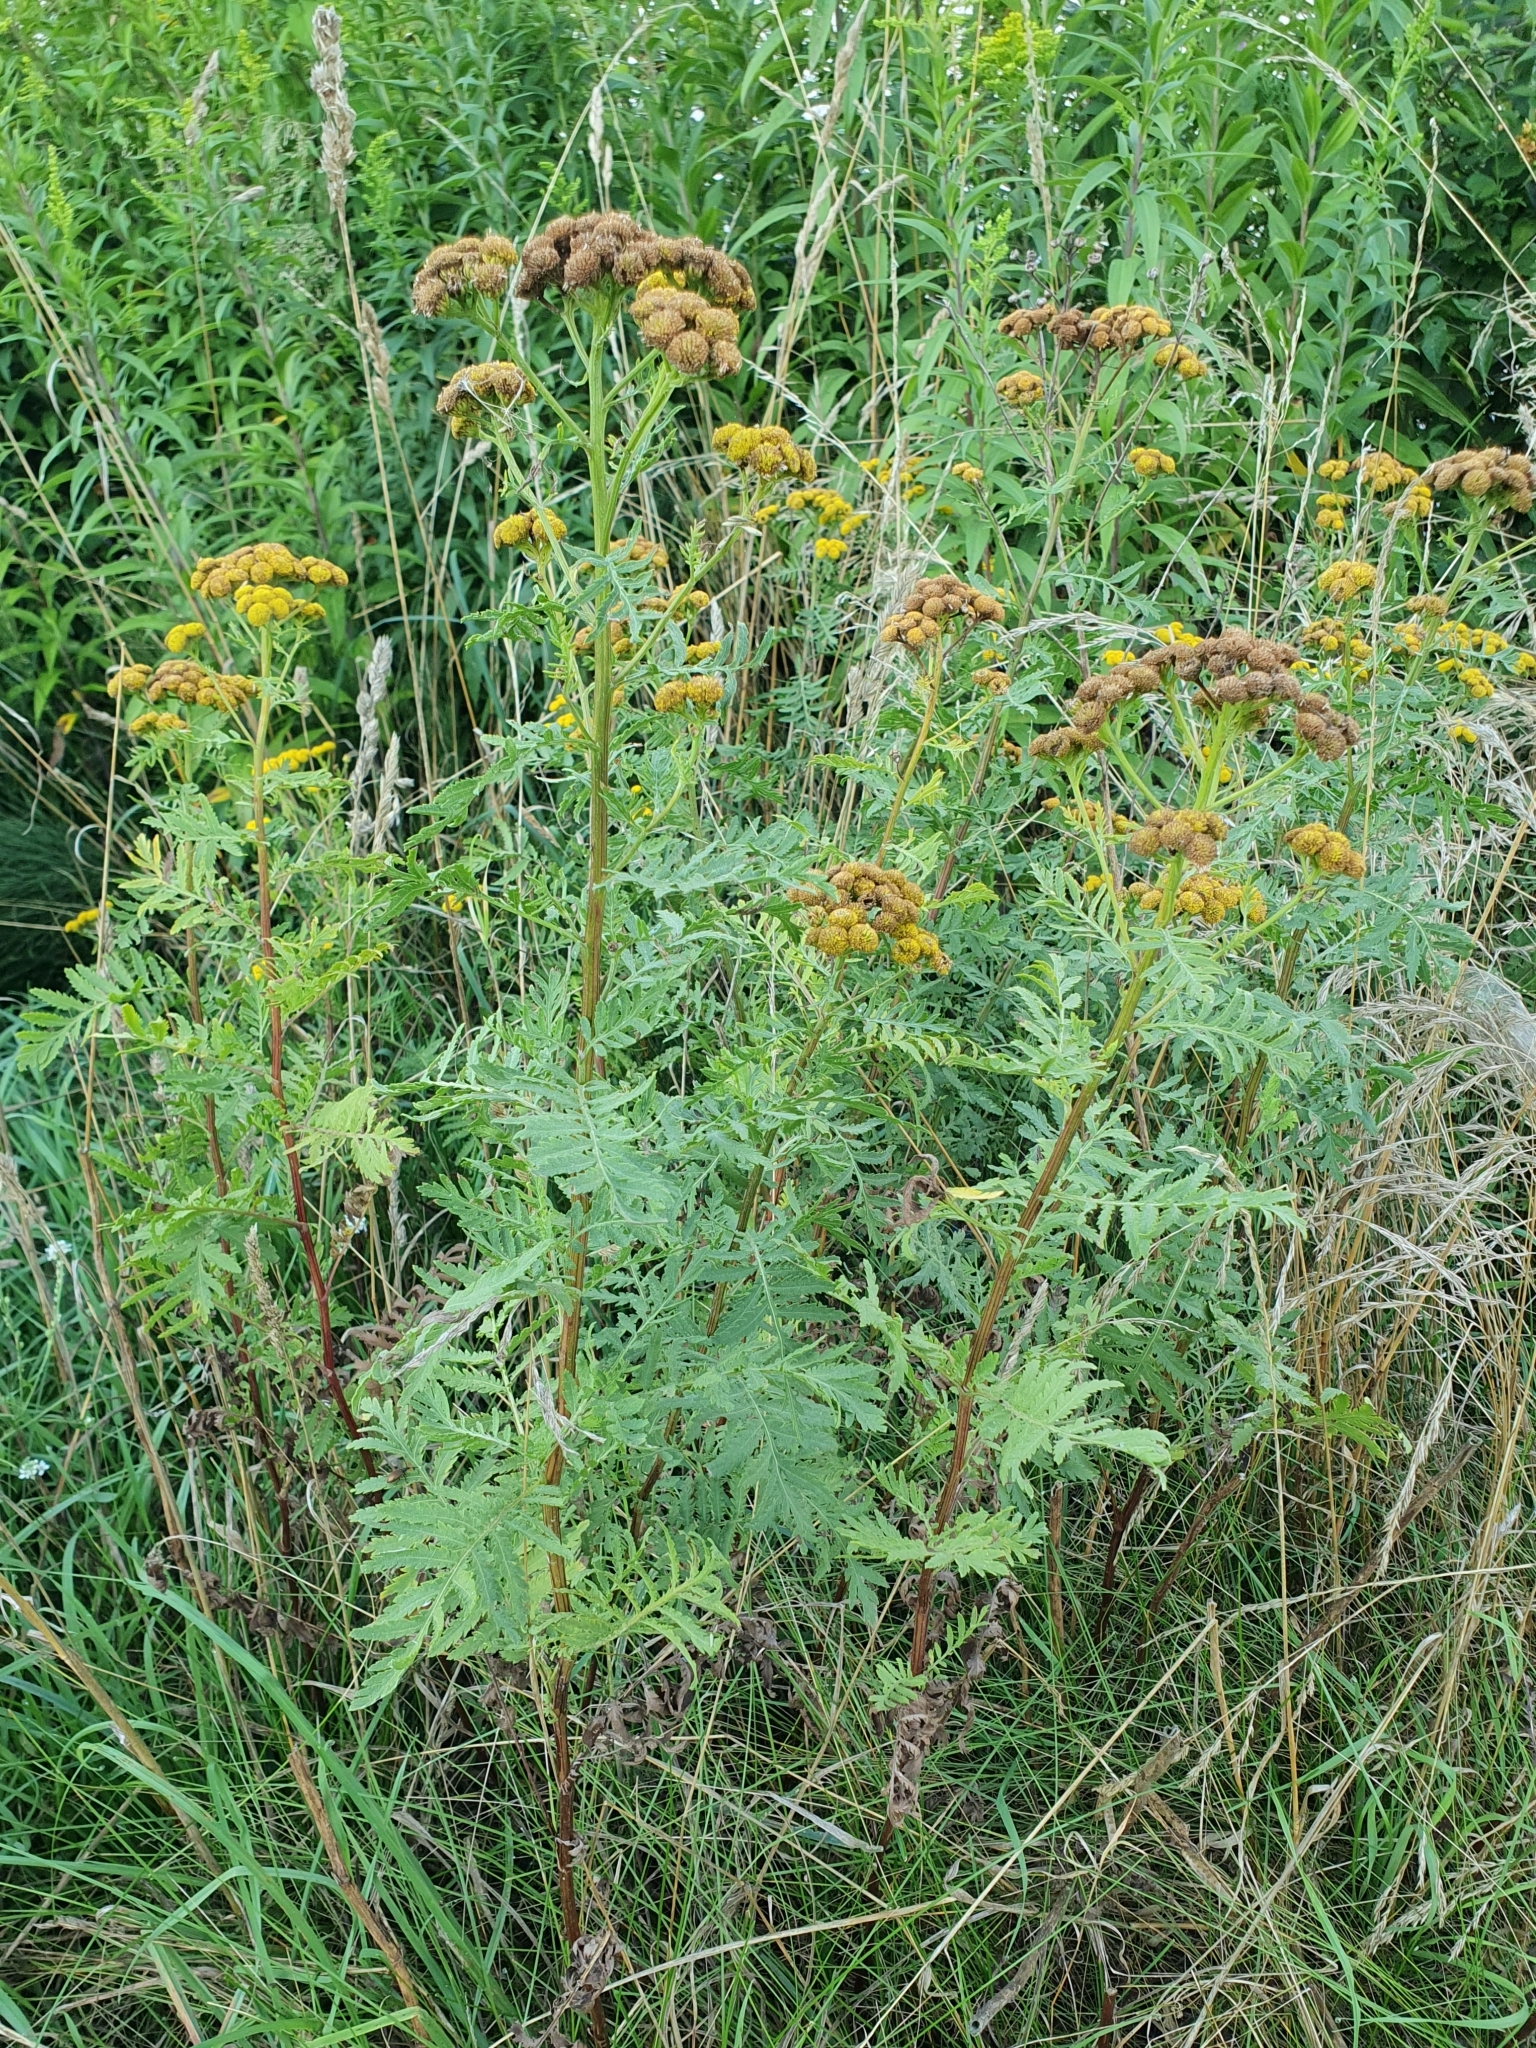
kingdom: Plantae
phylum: Tracheophyta
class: Magnoliopsida
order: Asterales
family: Asteraceae
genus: Tanacetum
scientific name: Tanacetum vulgare
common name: Common tansy
